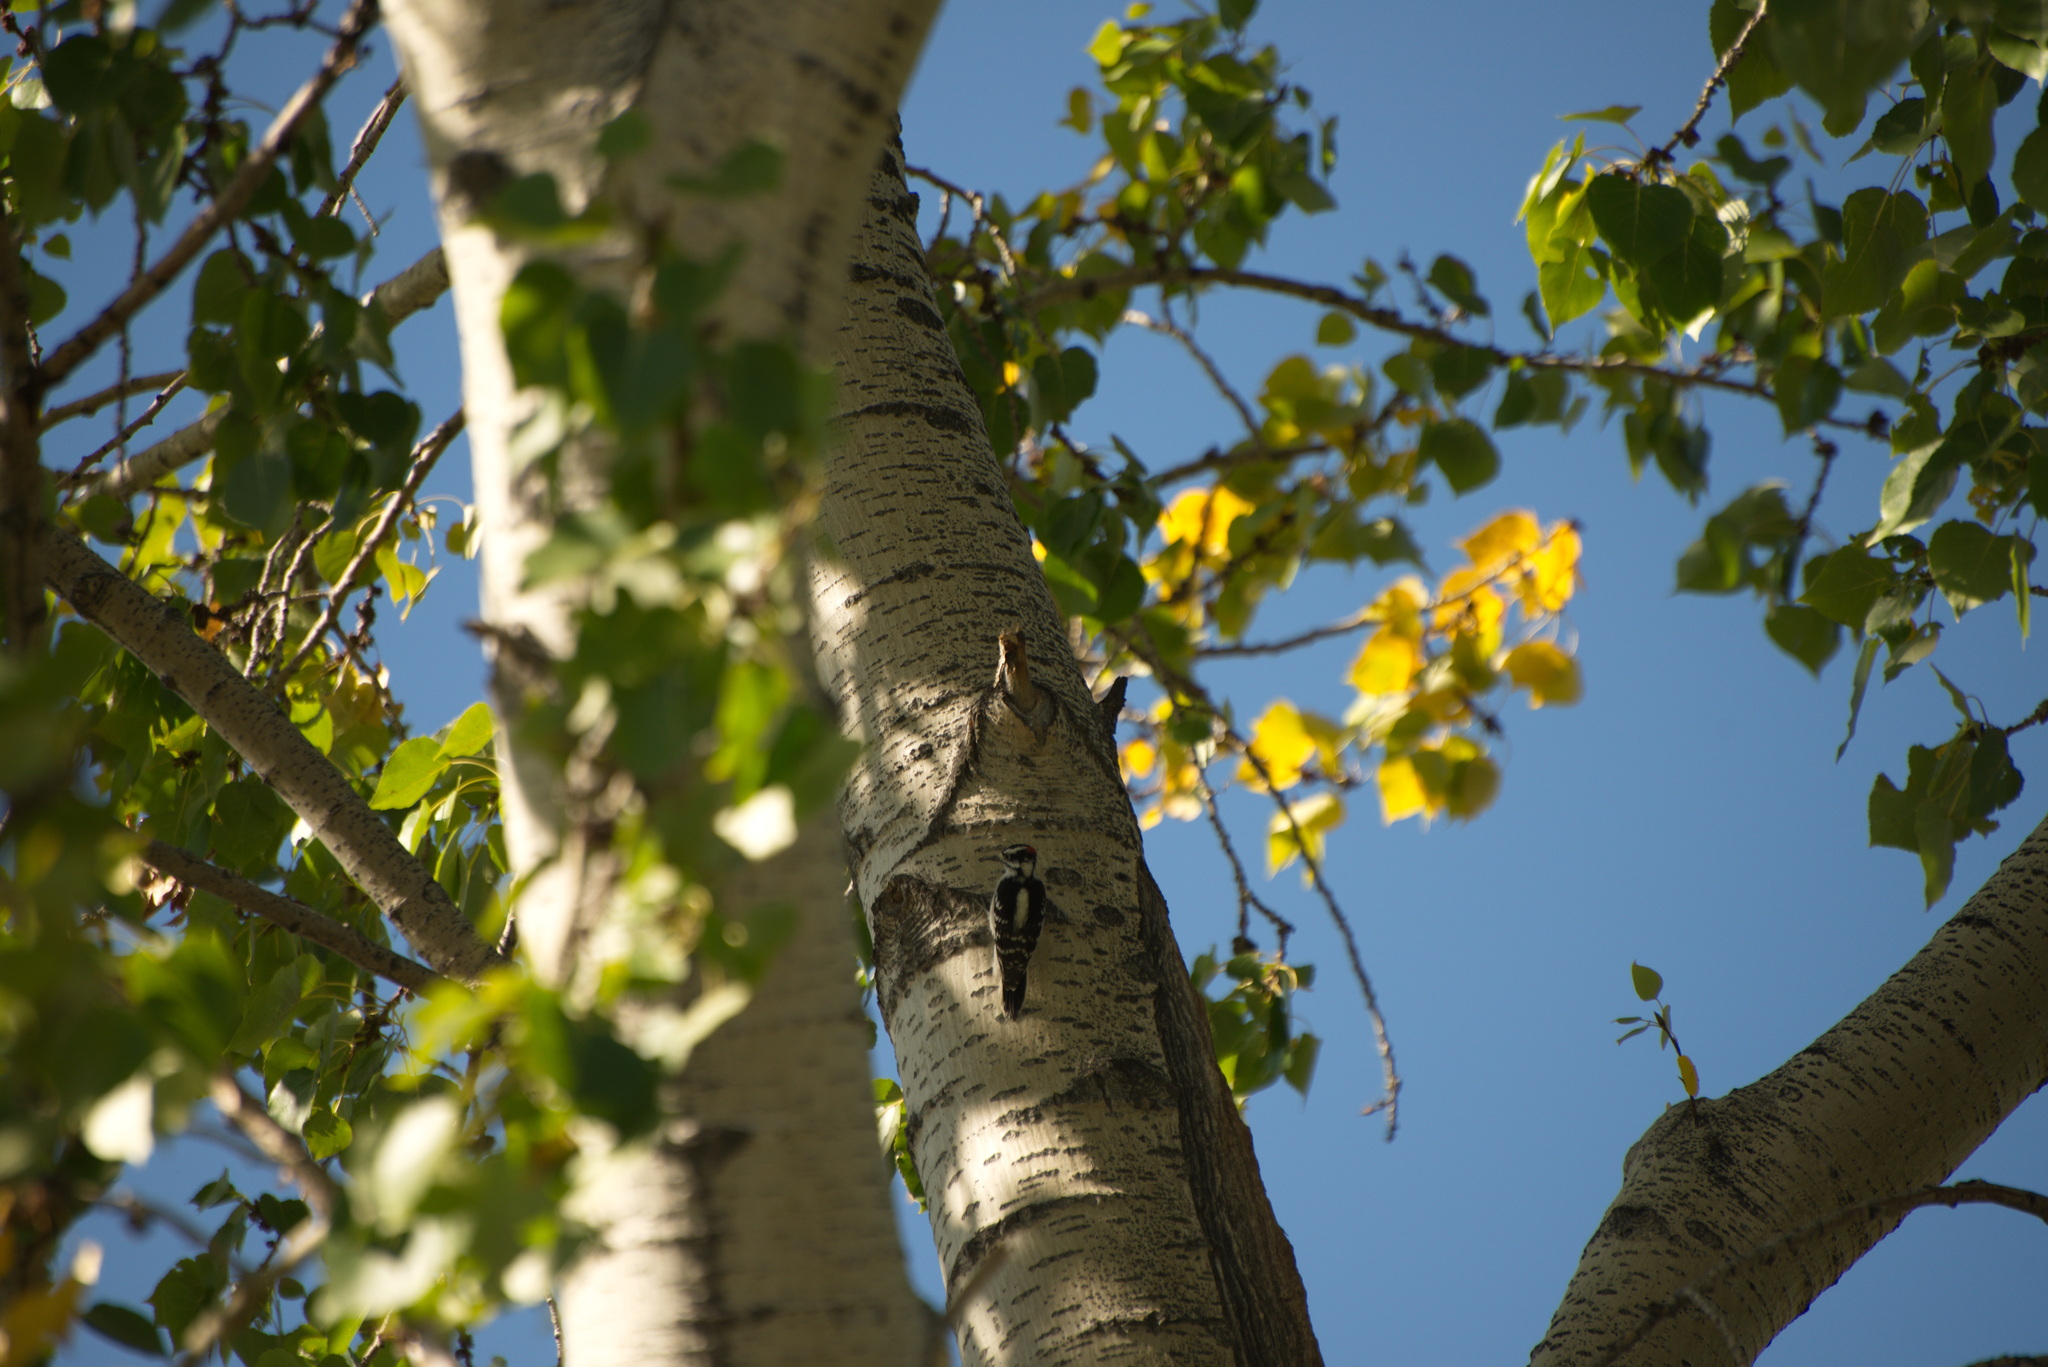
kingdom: Animalia
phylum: Chordata
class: Aves
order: Piciformes
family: Picidae
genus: Dryobates
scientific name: Dryobates pubescens
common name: Downy woodpecker
